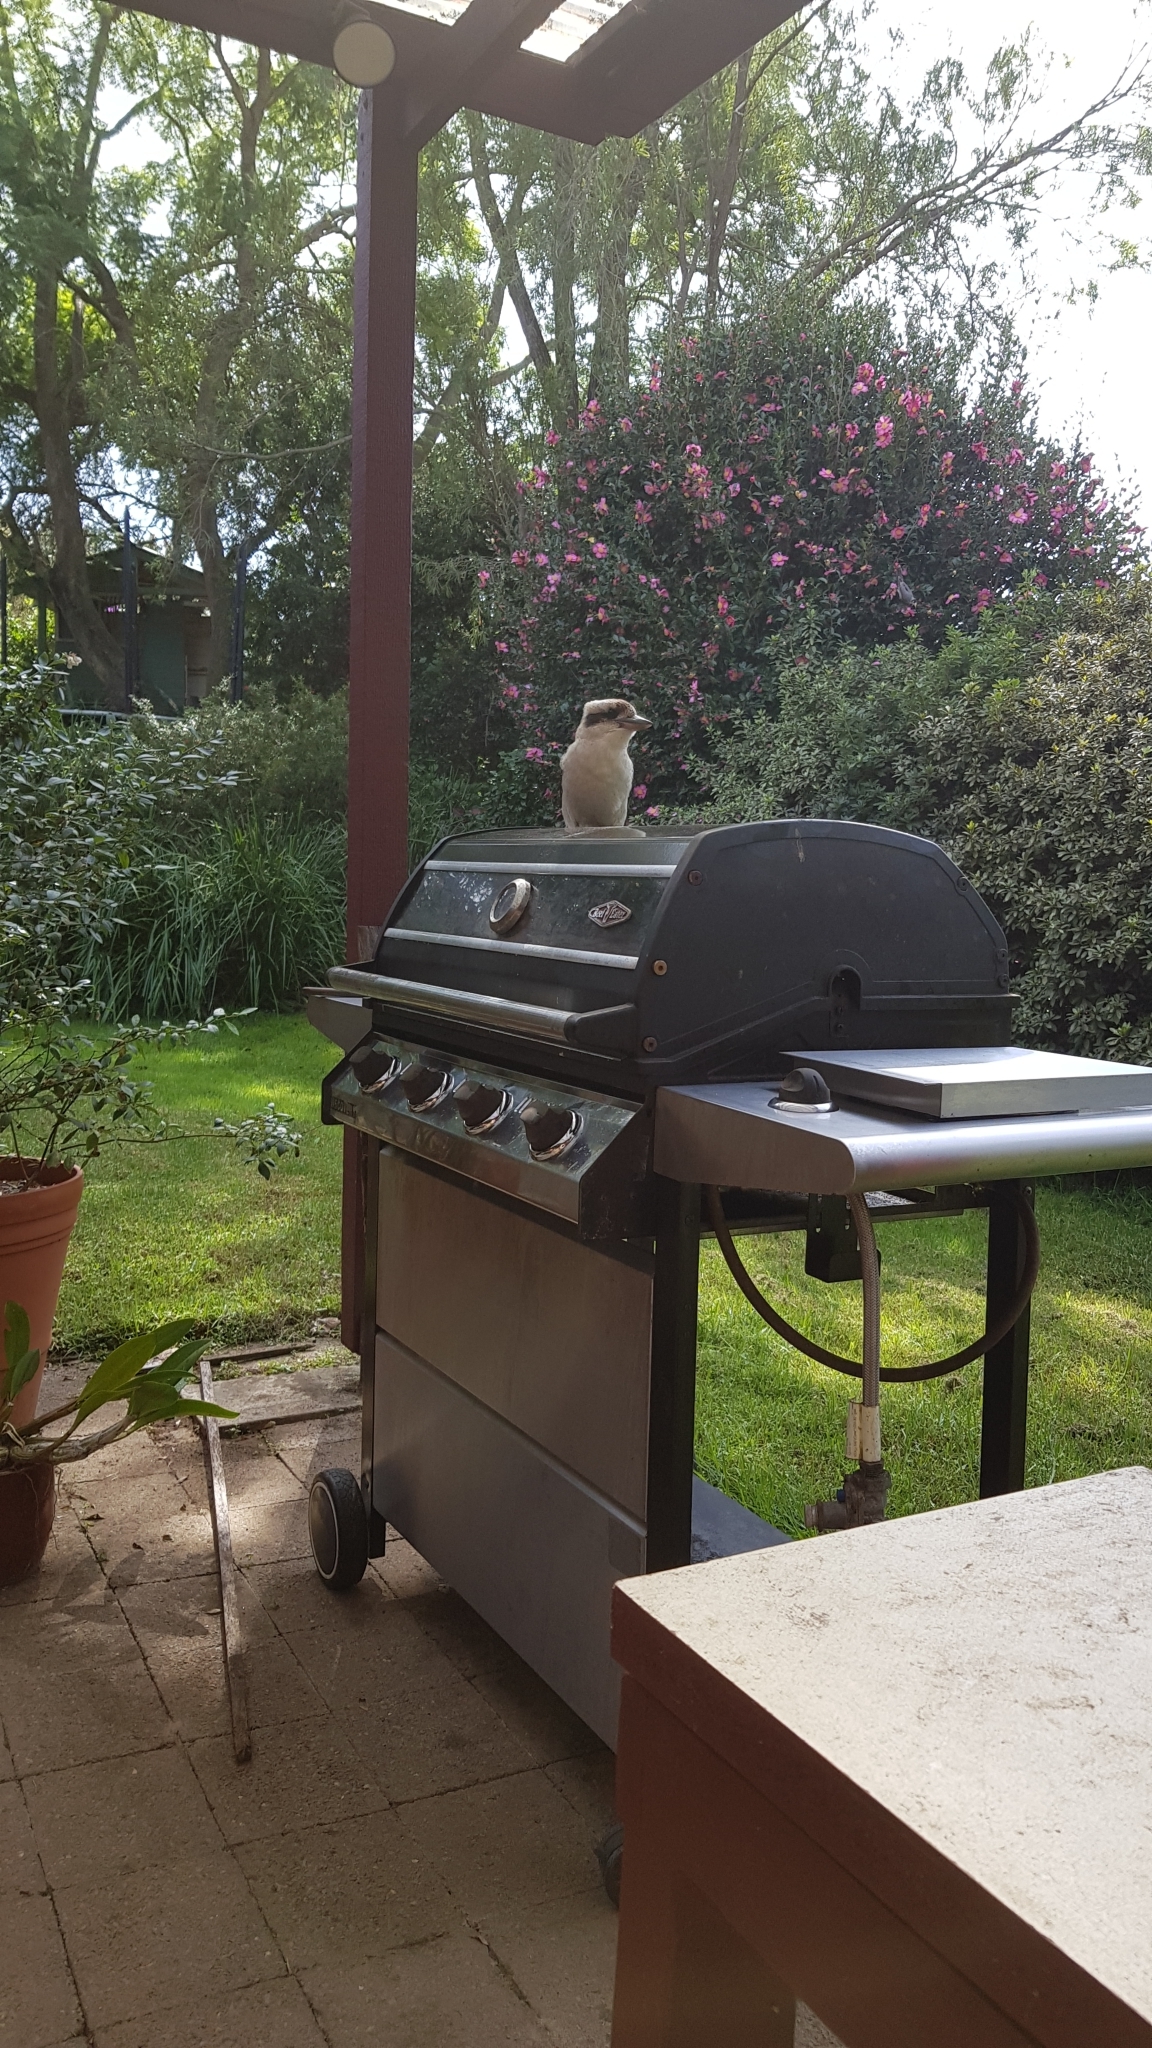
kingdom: Animalia
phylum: Chordata
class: Aves
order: Coraciiformes
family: Alcedinidae
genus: Dacelo
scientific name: Dacelo novaeguineae
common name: Laughing kookaburra
